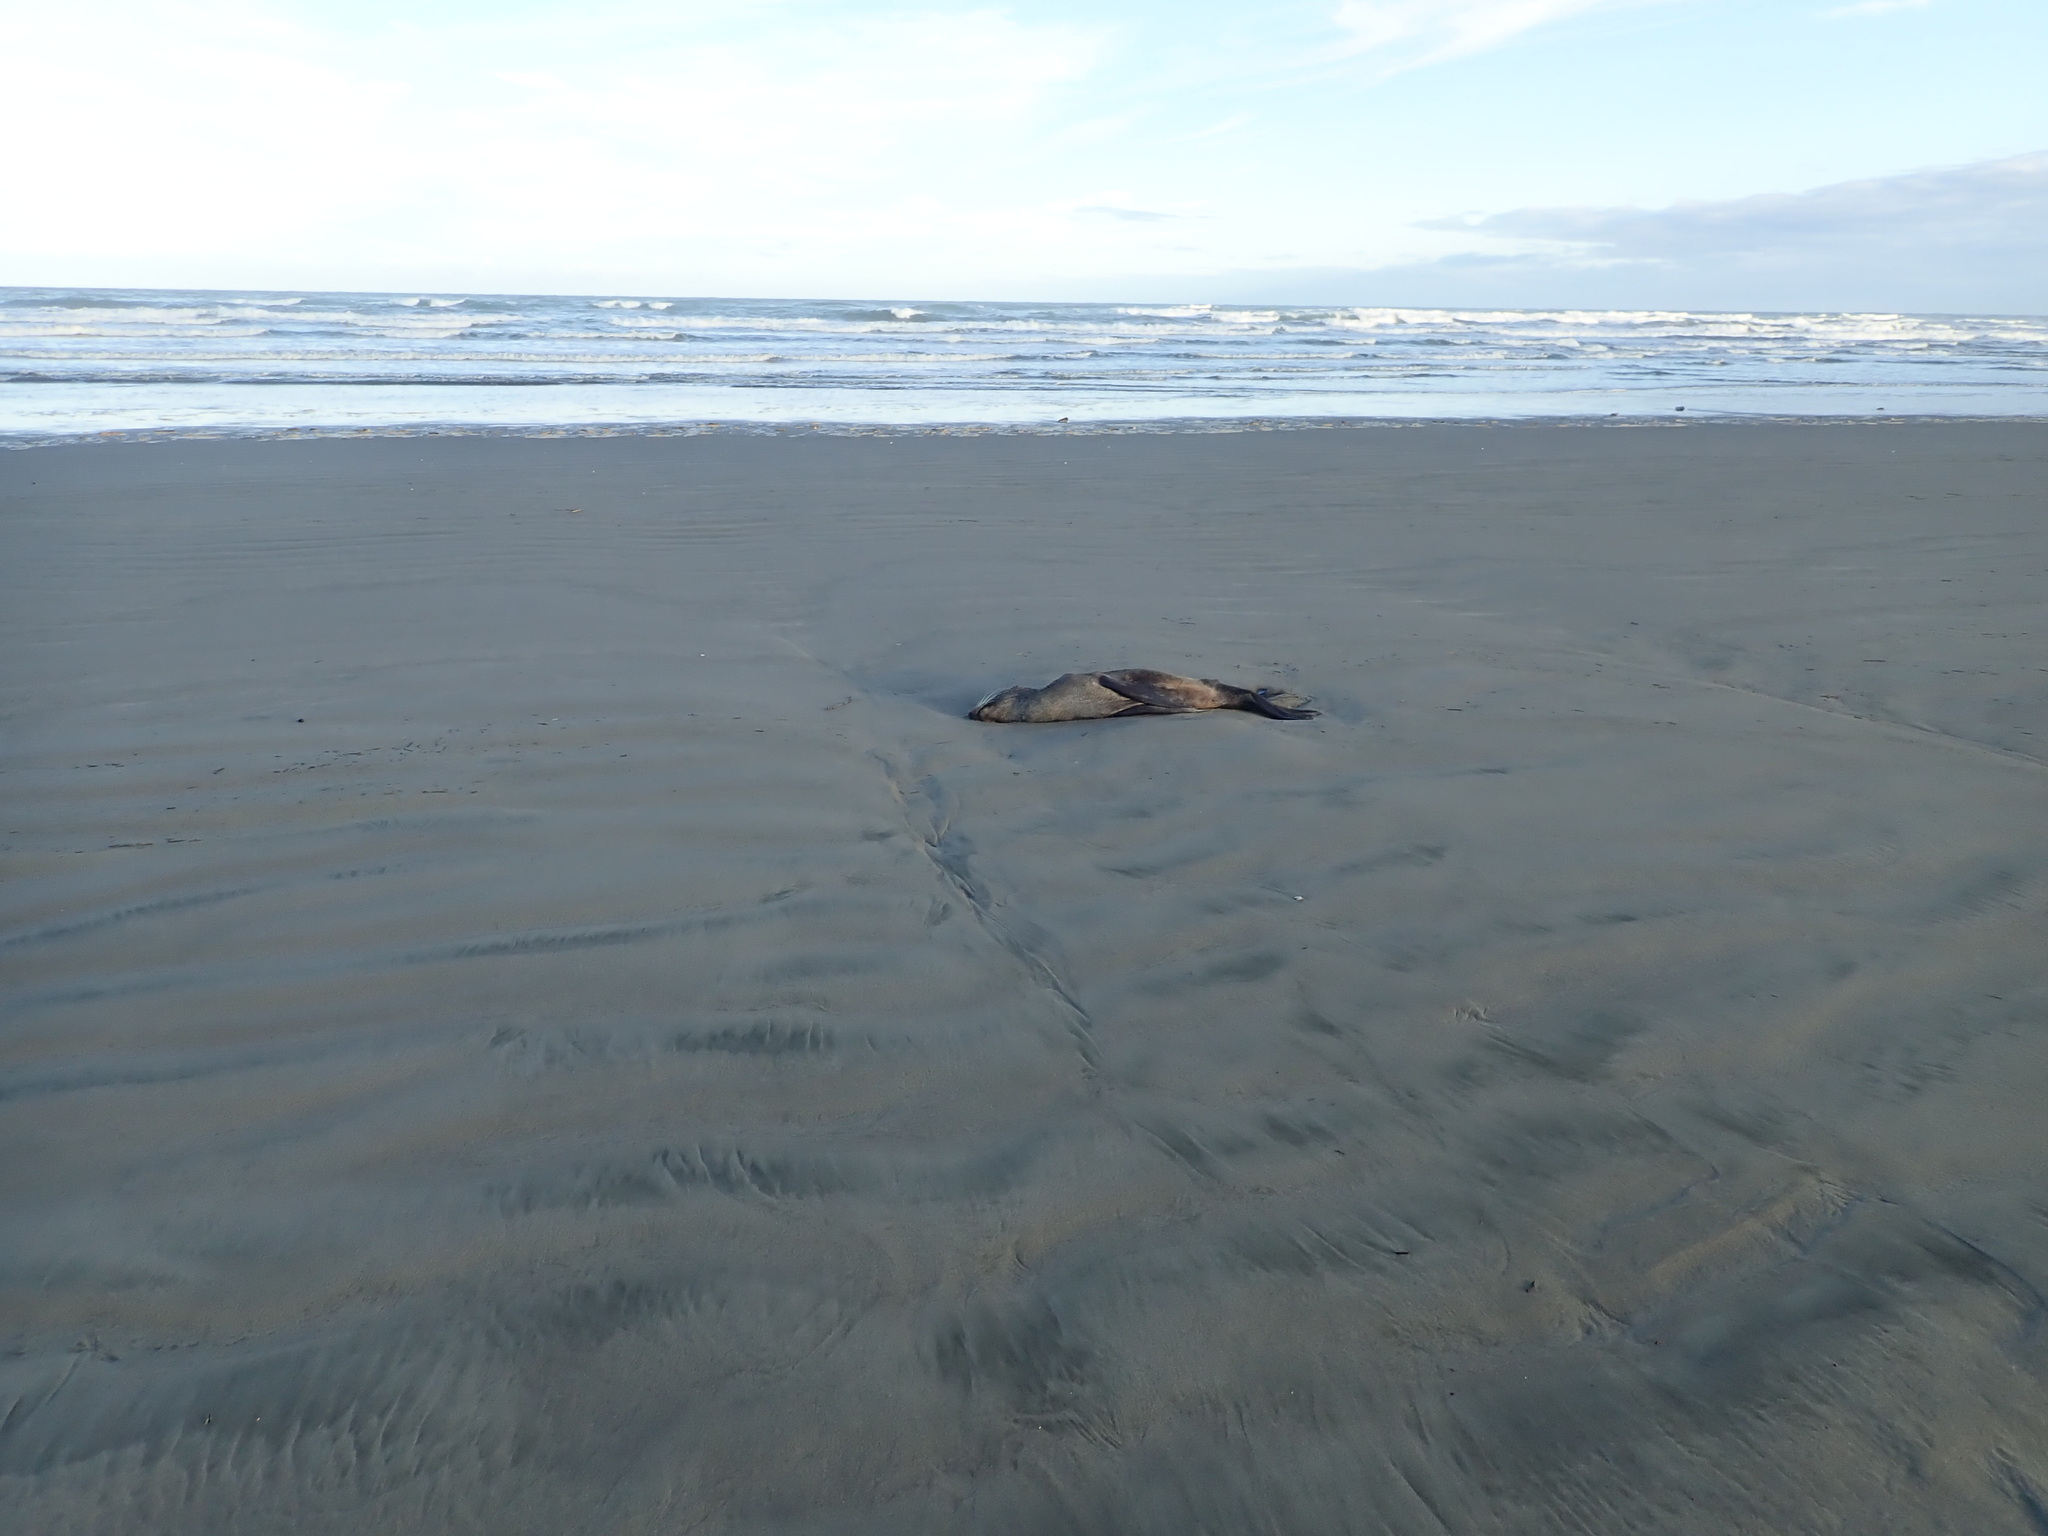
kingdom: Animalia
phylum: Chordata
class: Mammalia
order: Carnivora
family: Otariidae
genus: Arctocephalus
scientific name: Arctocephalus forsteri
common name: New zealand fur seal
